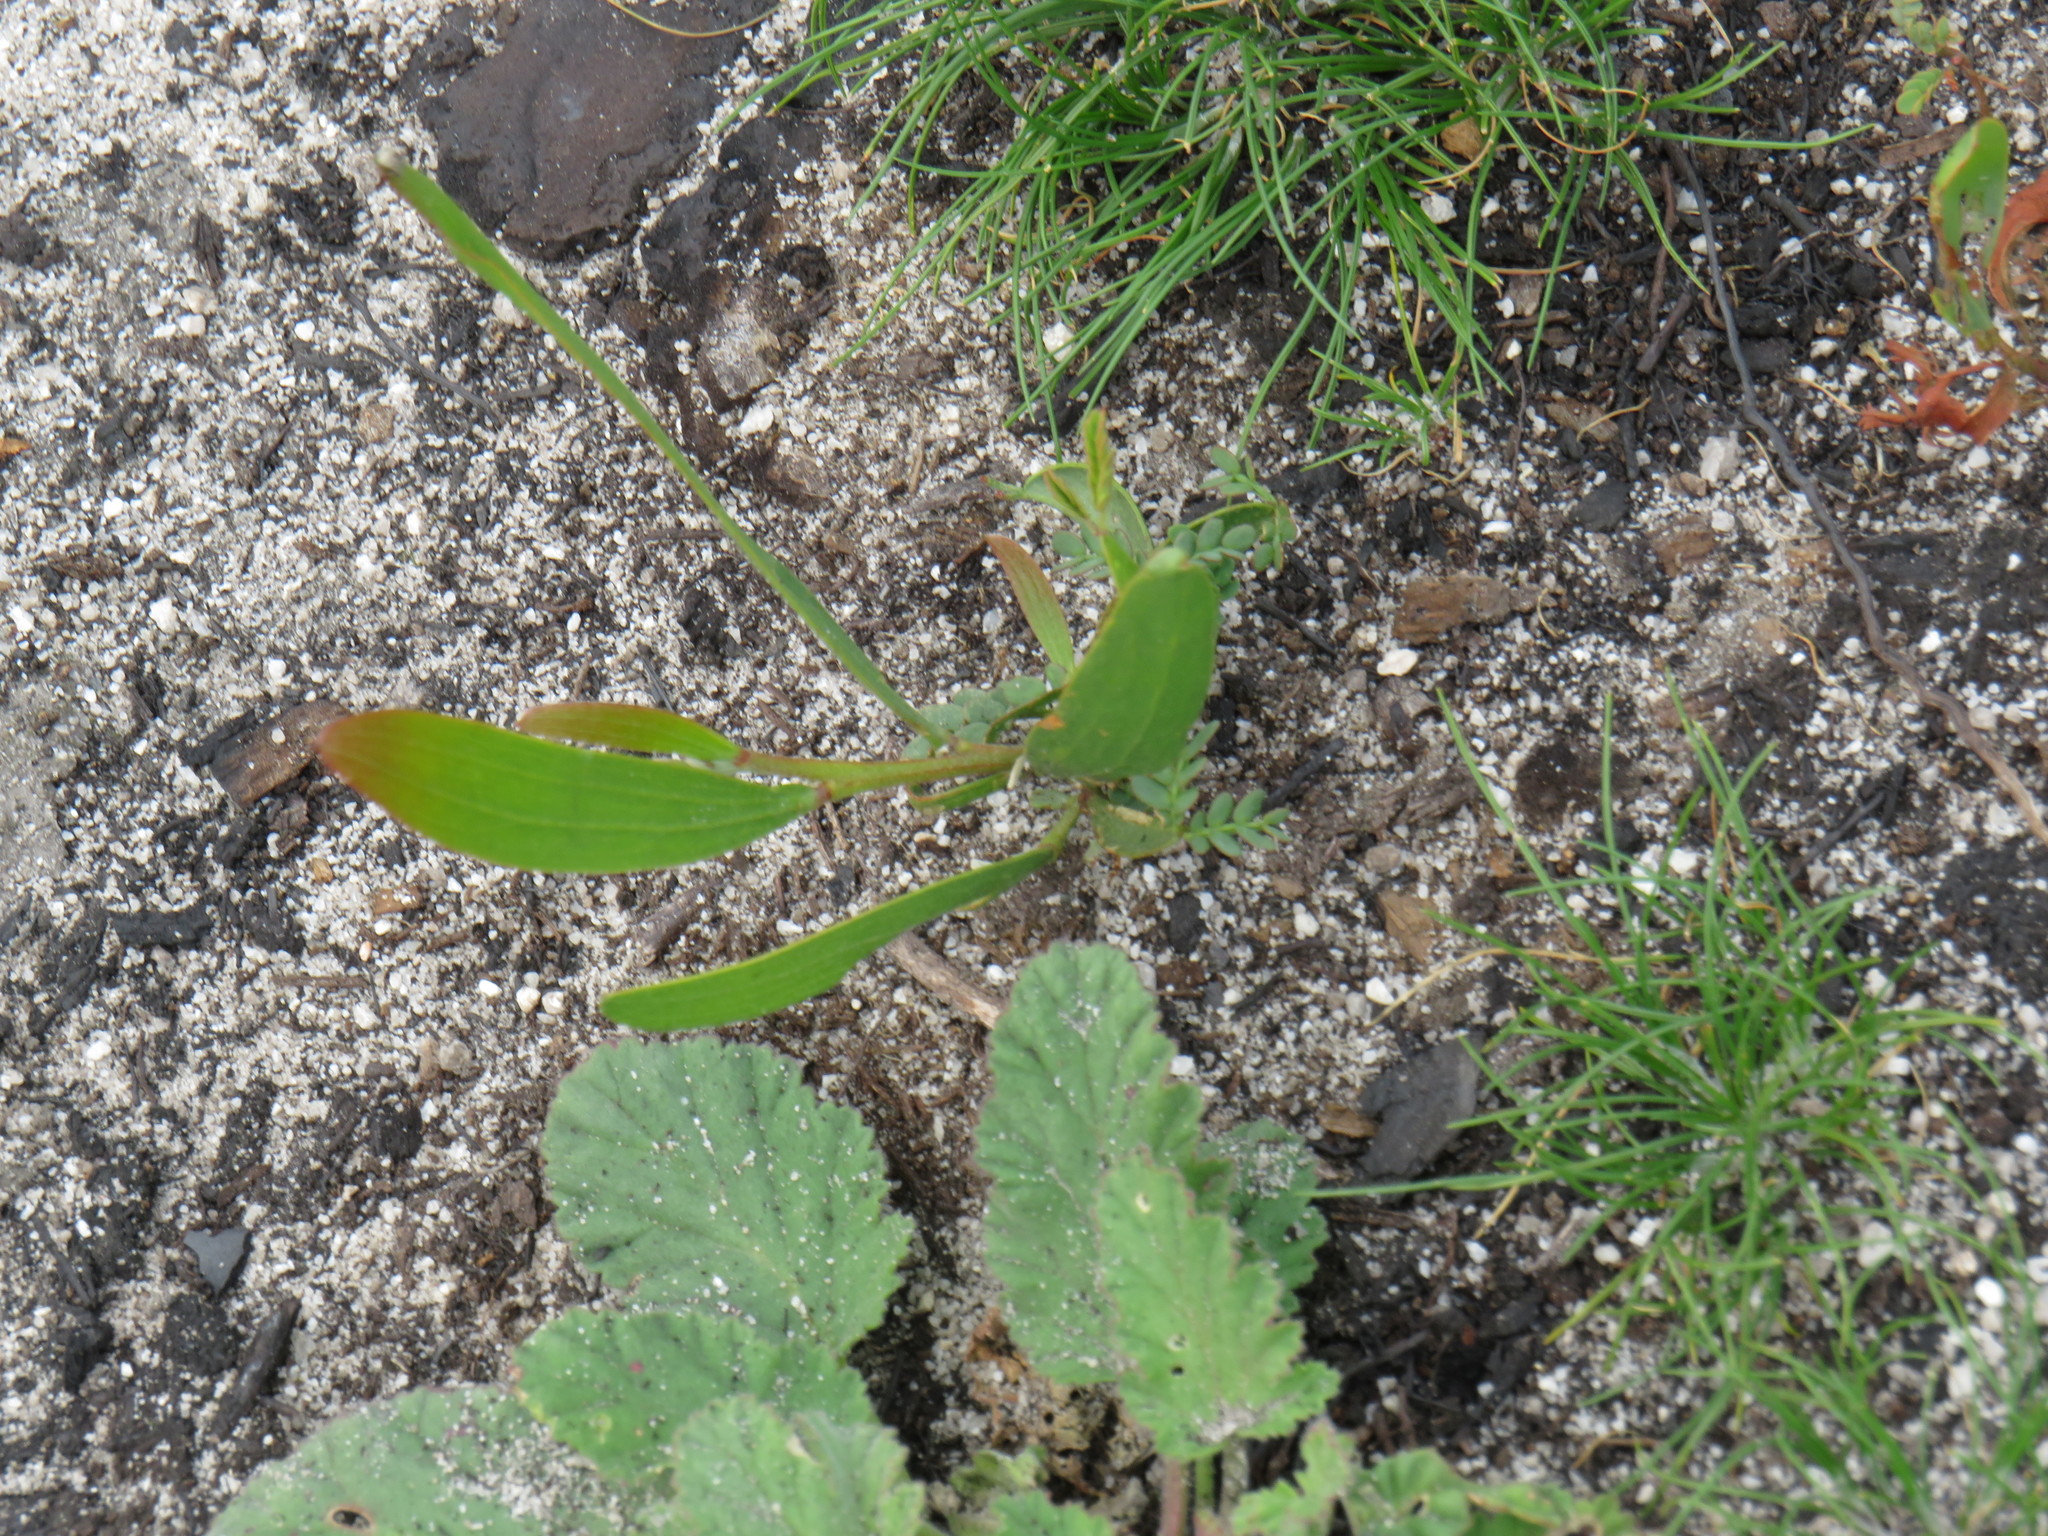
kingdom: Plantae
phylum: Tracheophyta
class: Magnoliopsida
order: Fabales
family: Fabaceae
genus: Acacia
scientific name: Acacia longifolia
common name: Sydney golden wattle
